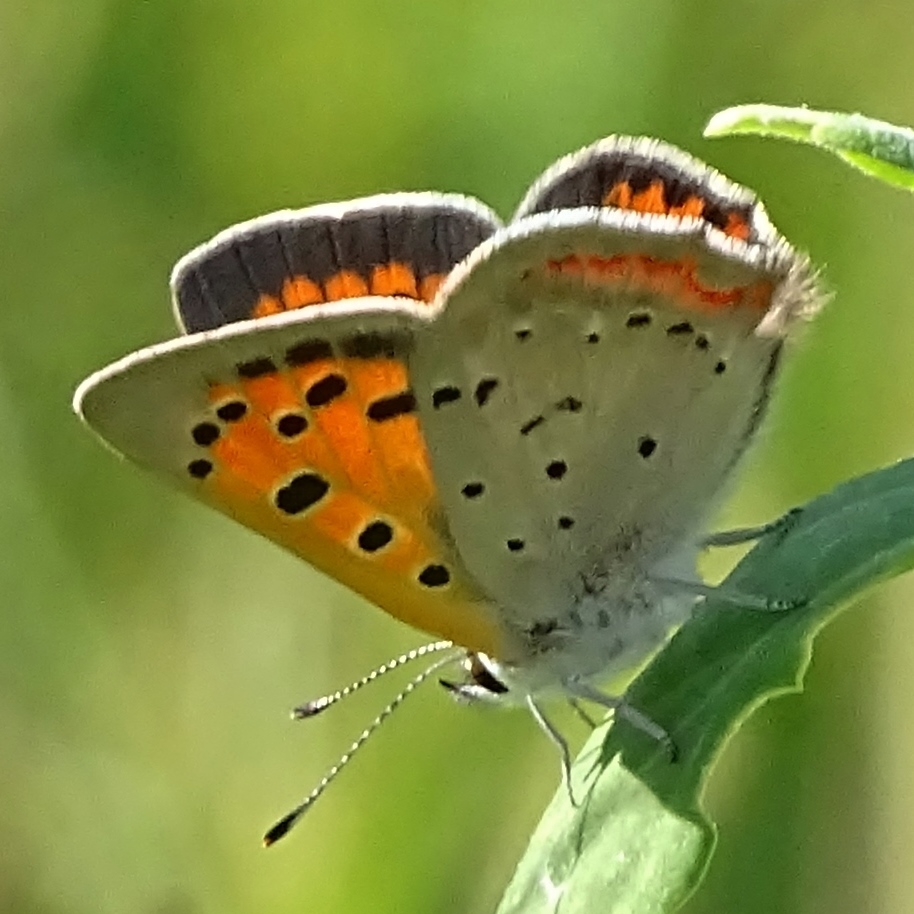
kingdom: Animalia
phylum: Arthropoda
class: Insecta
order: Lepidoptera
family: Lycaenidae
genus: Lycaena
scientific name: Lycaena hypophlaeas
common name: American copper
